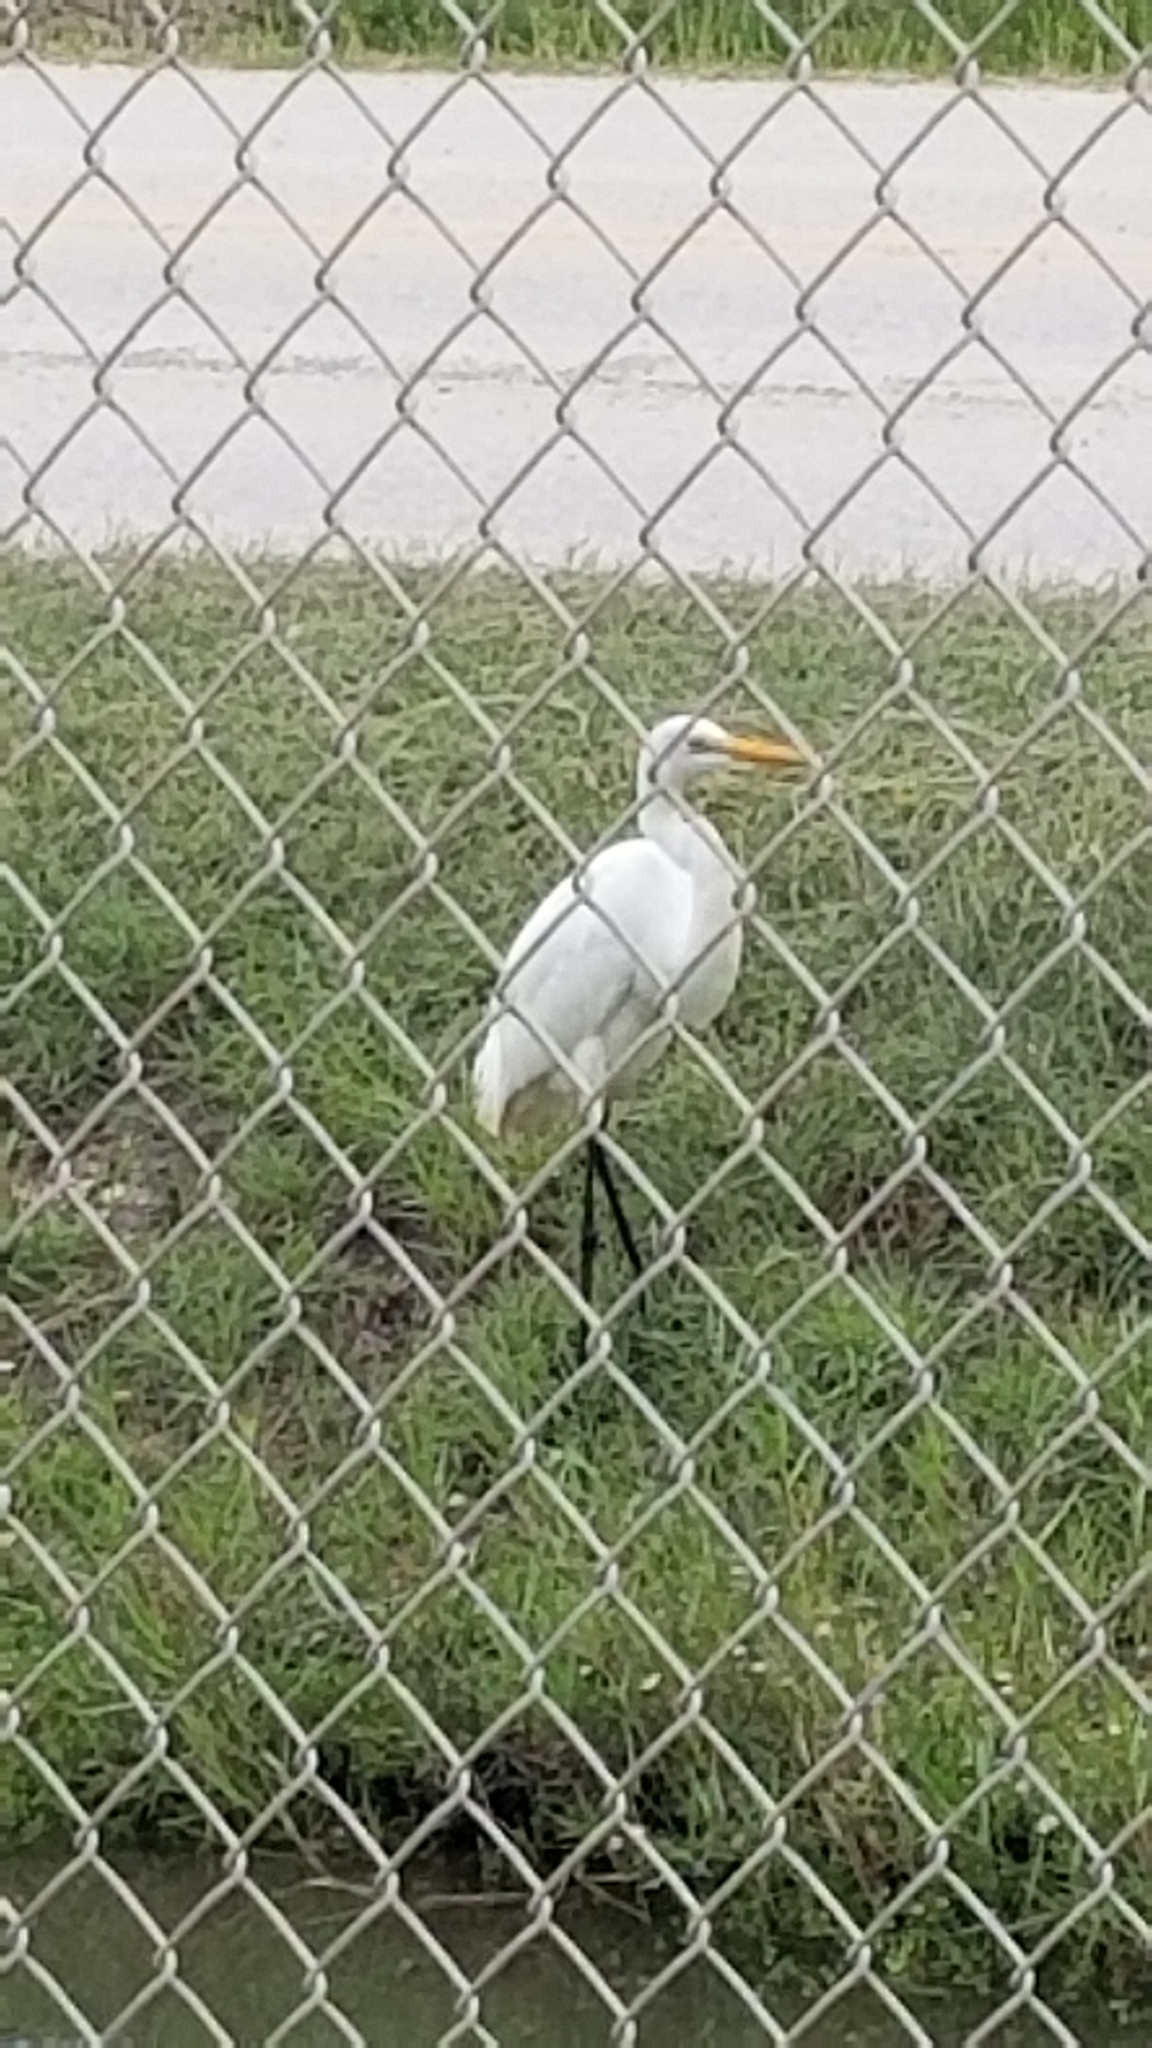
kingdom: Animalia
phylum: Chordata
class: Aves
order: Pelecaniformes
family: Ardeidae
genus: Ardea
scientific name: Ardea alba
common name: Great egret
